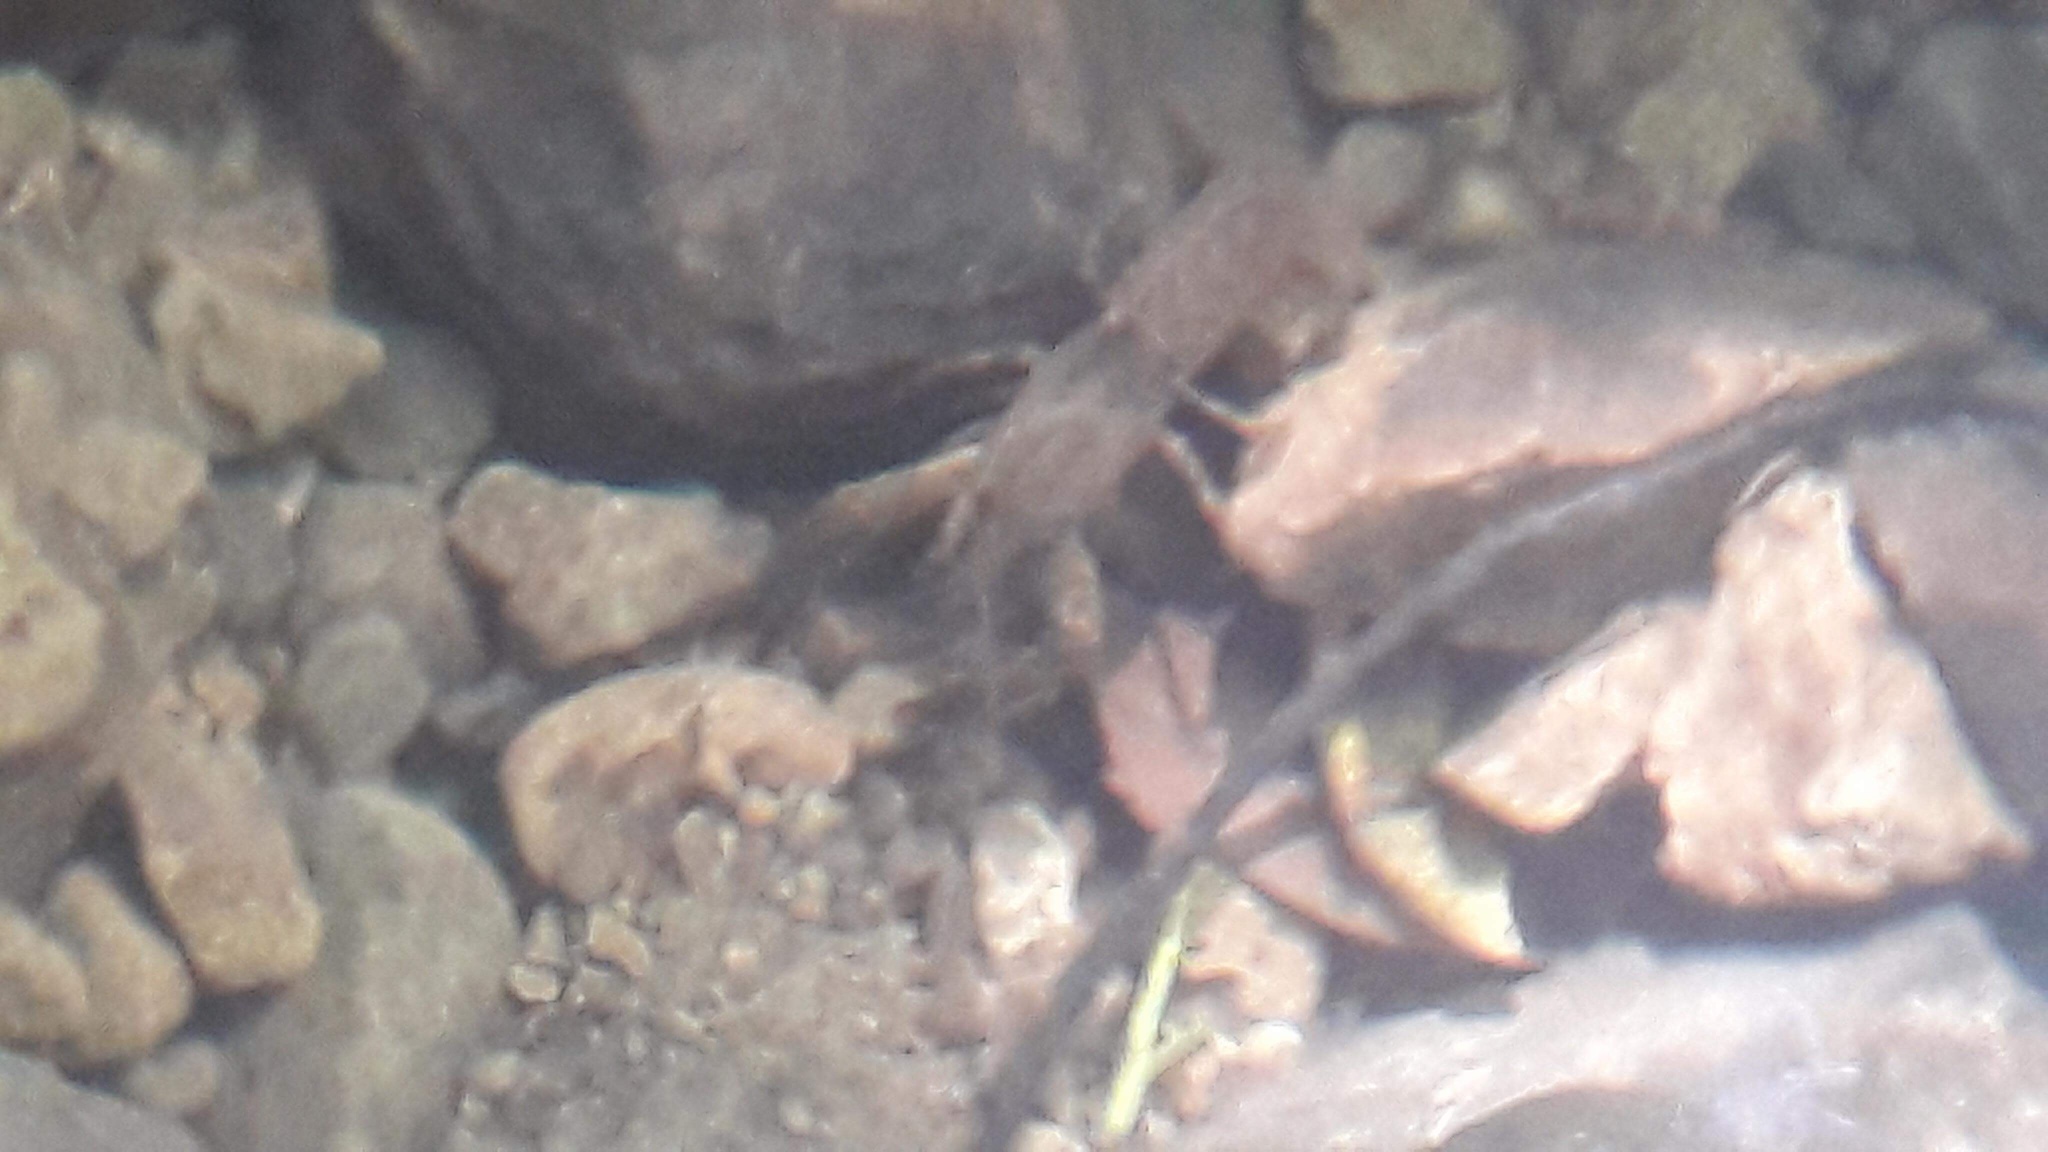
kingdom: Animalia
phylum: Arthropoda
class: Malacostraca
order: Decapoda
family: Parastacidae
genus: Paranephrops
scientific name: Paranephrops planifrons
